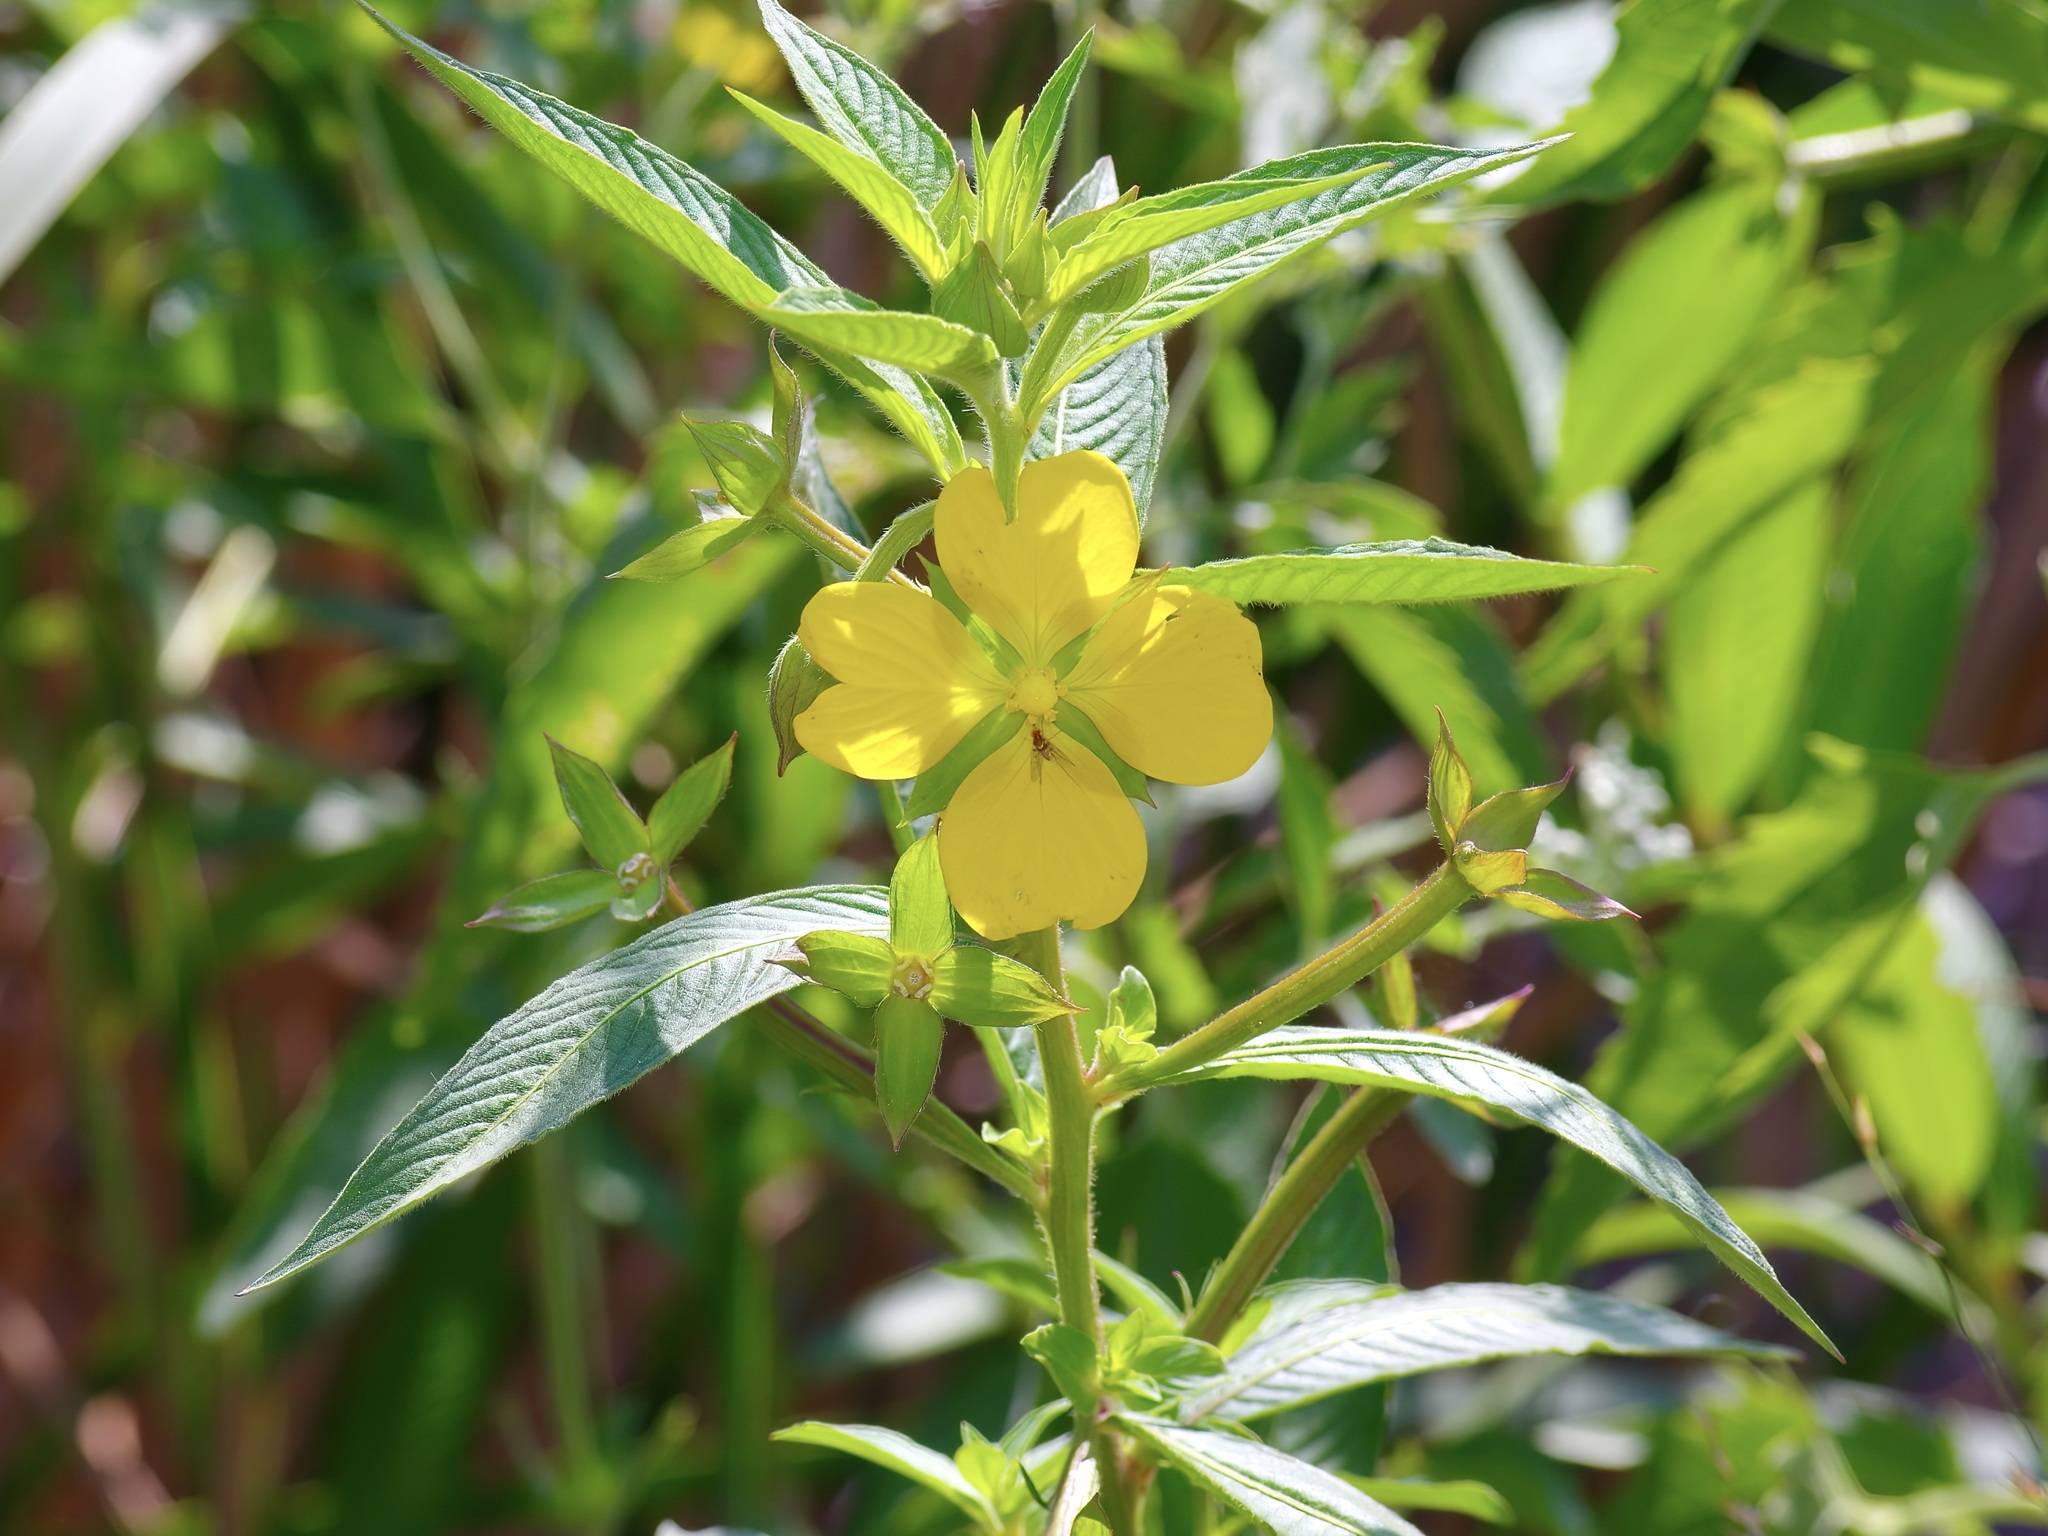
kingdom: Plantae
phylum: Tracheophyta
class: Magnoliopsida
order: Myrtales
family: Onagraceae
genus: Ludwigia
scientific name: Ludwigia octovalvis
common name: Water-primrose
